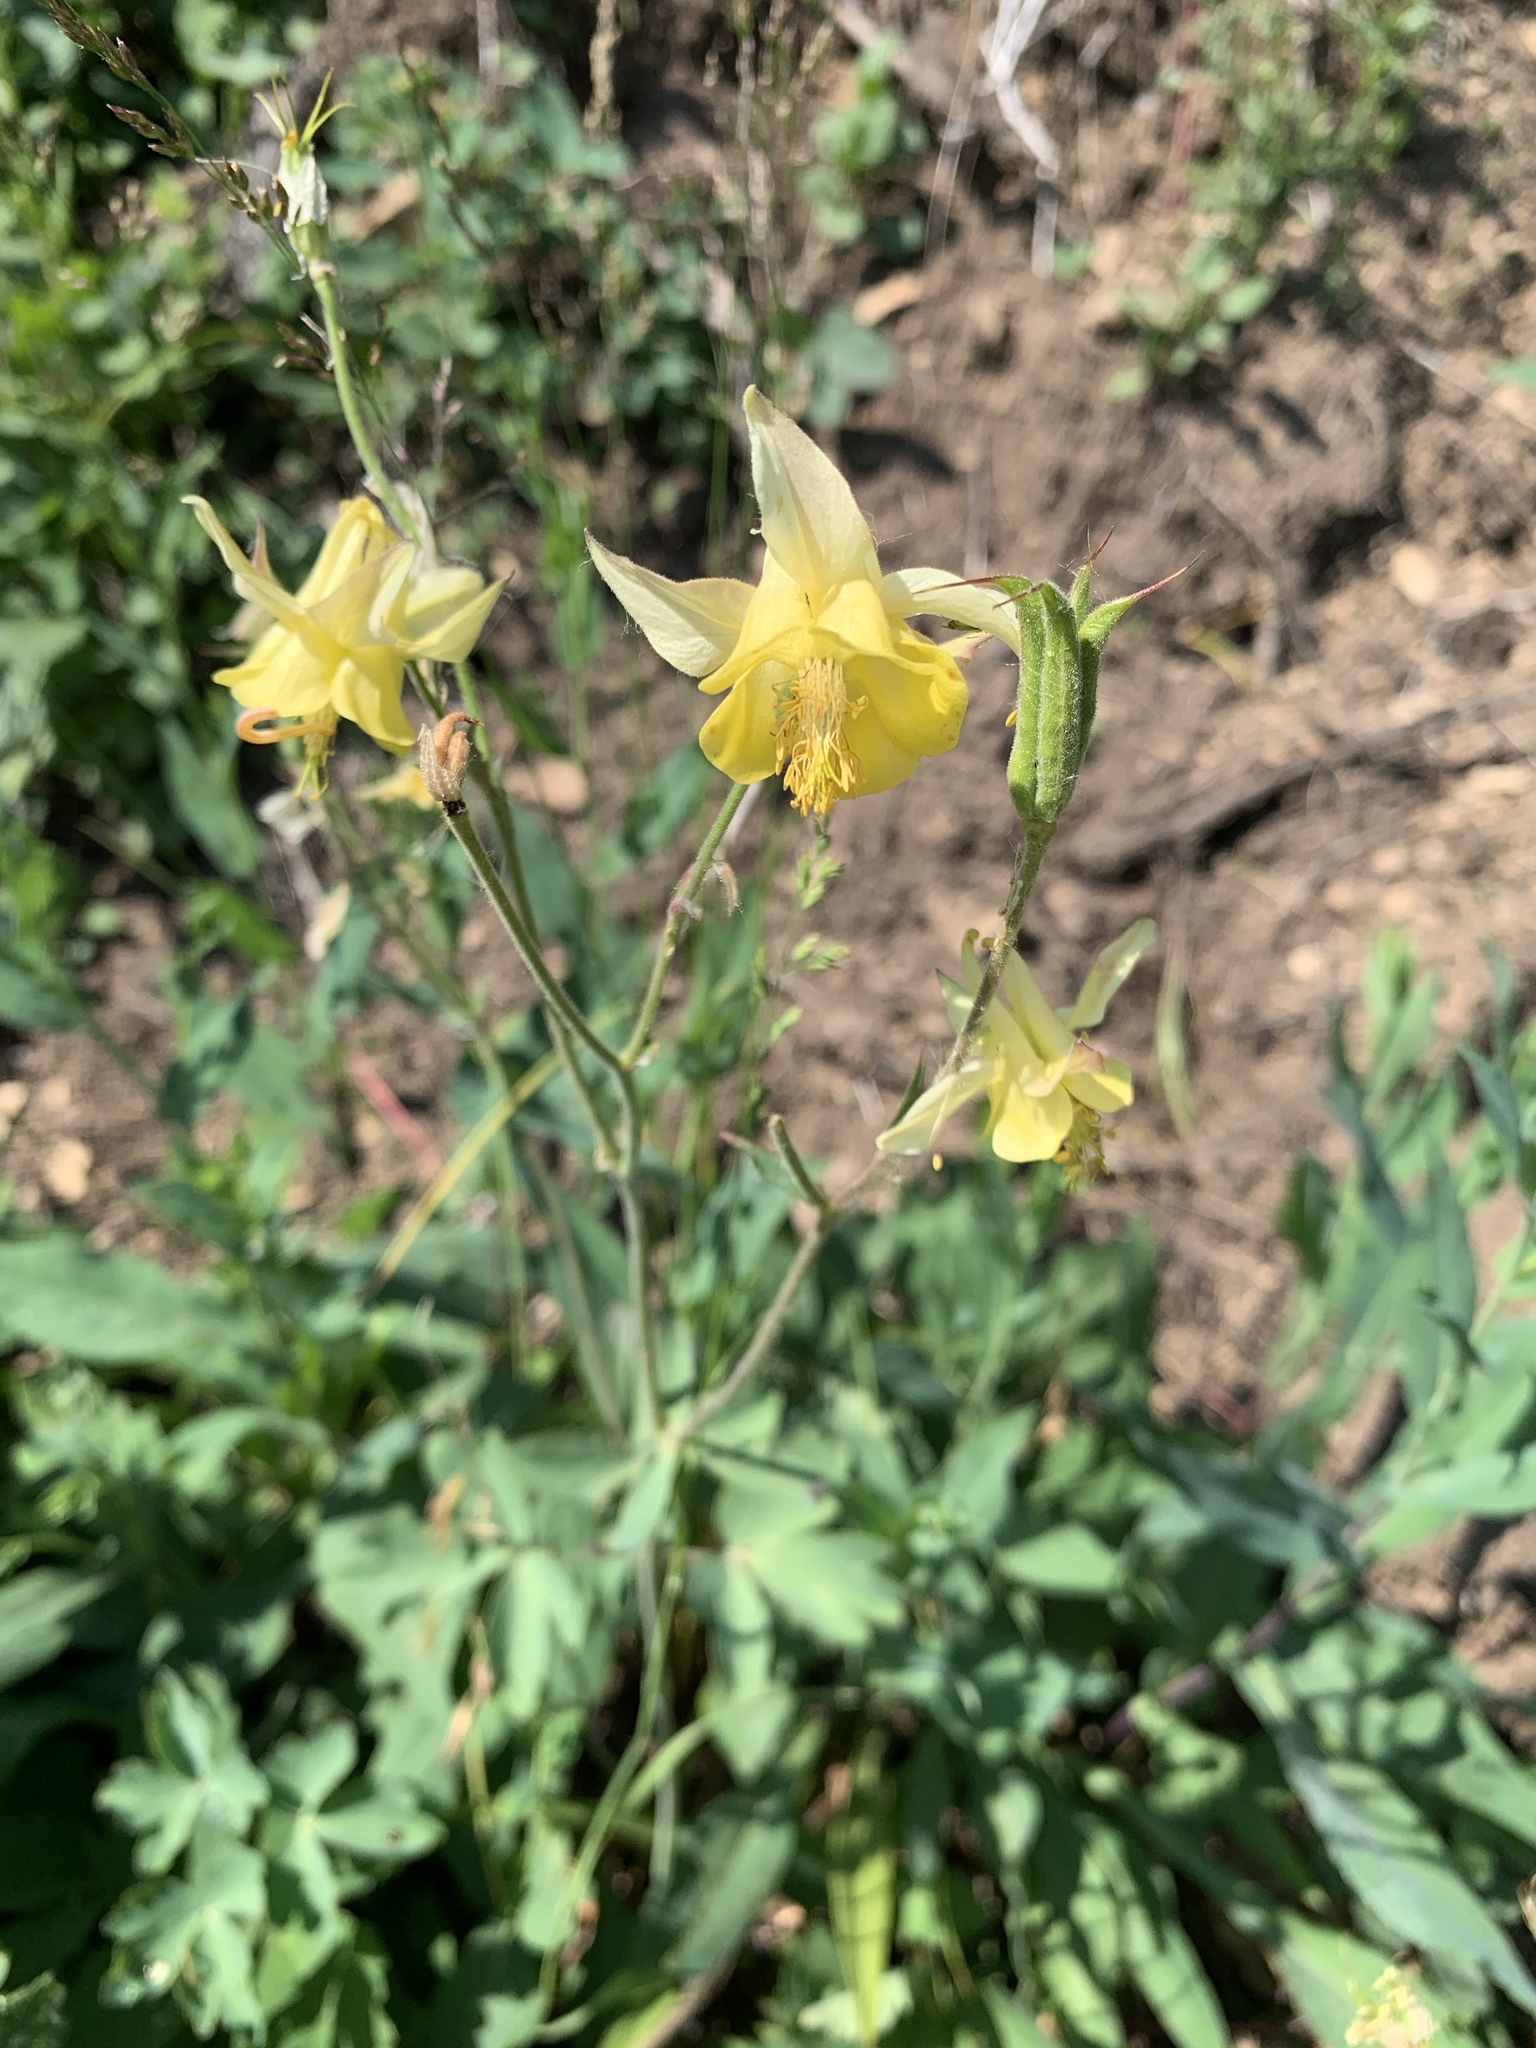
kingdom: Plantae
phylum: Tracheophyta
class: Magnoliopsida
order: Ranunculales
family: Ranunculaceae
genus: Aquilegia
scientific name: Aquilegia flavescens
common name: Yellow columbine
